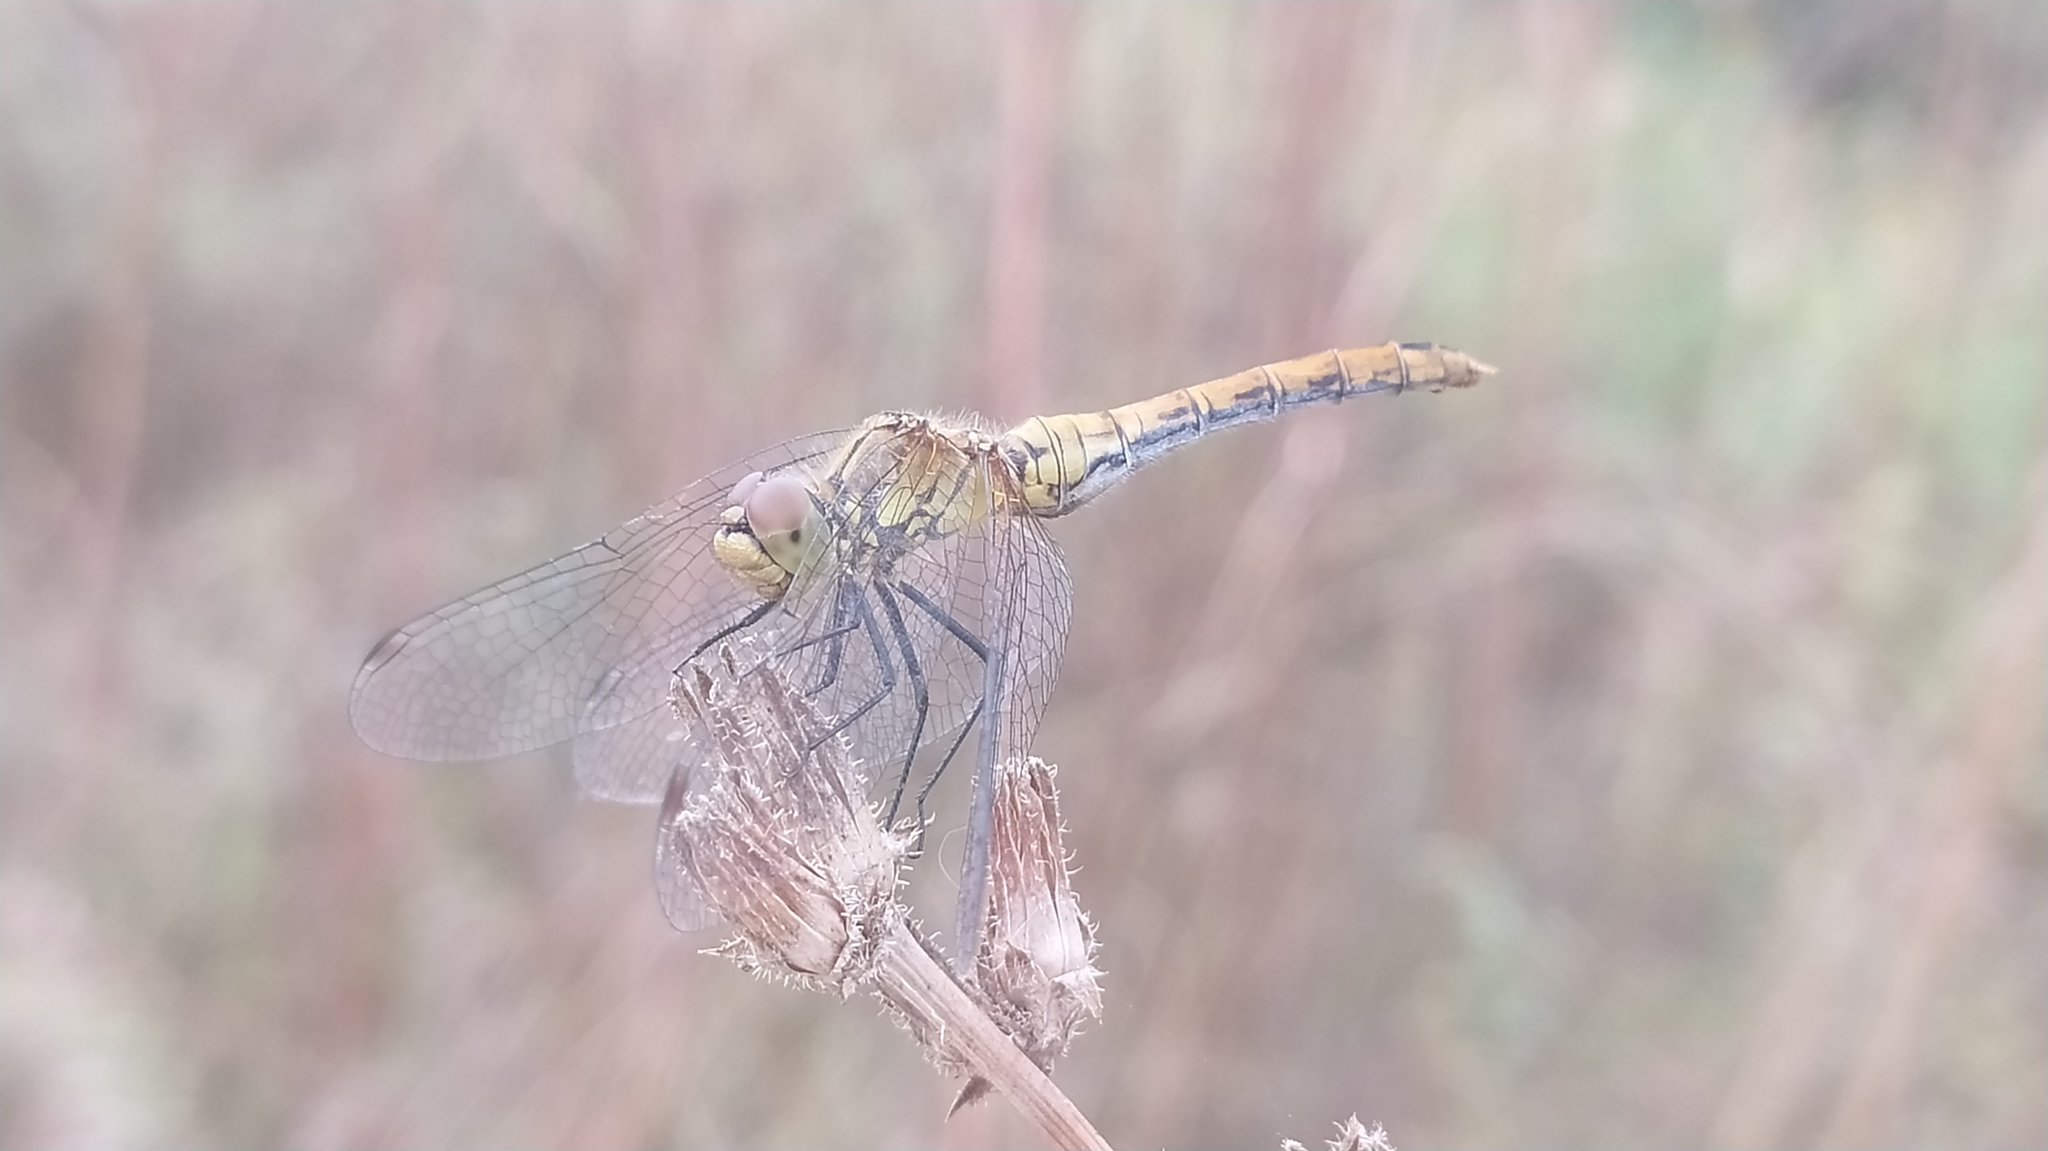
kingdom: Animalia
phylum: Arthropoda
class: Insecta
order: Odonata
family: Libellulidae
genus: Sympetrum
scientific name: Sympetrum sanguineum
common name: Ruddy darter
